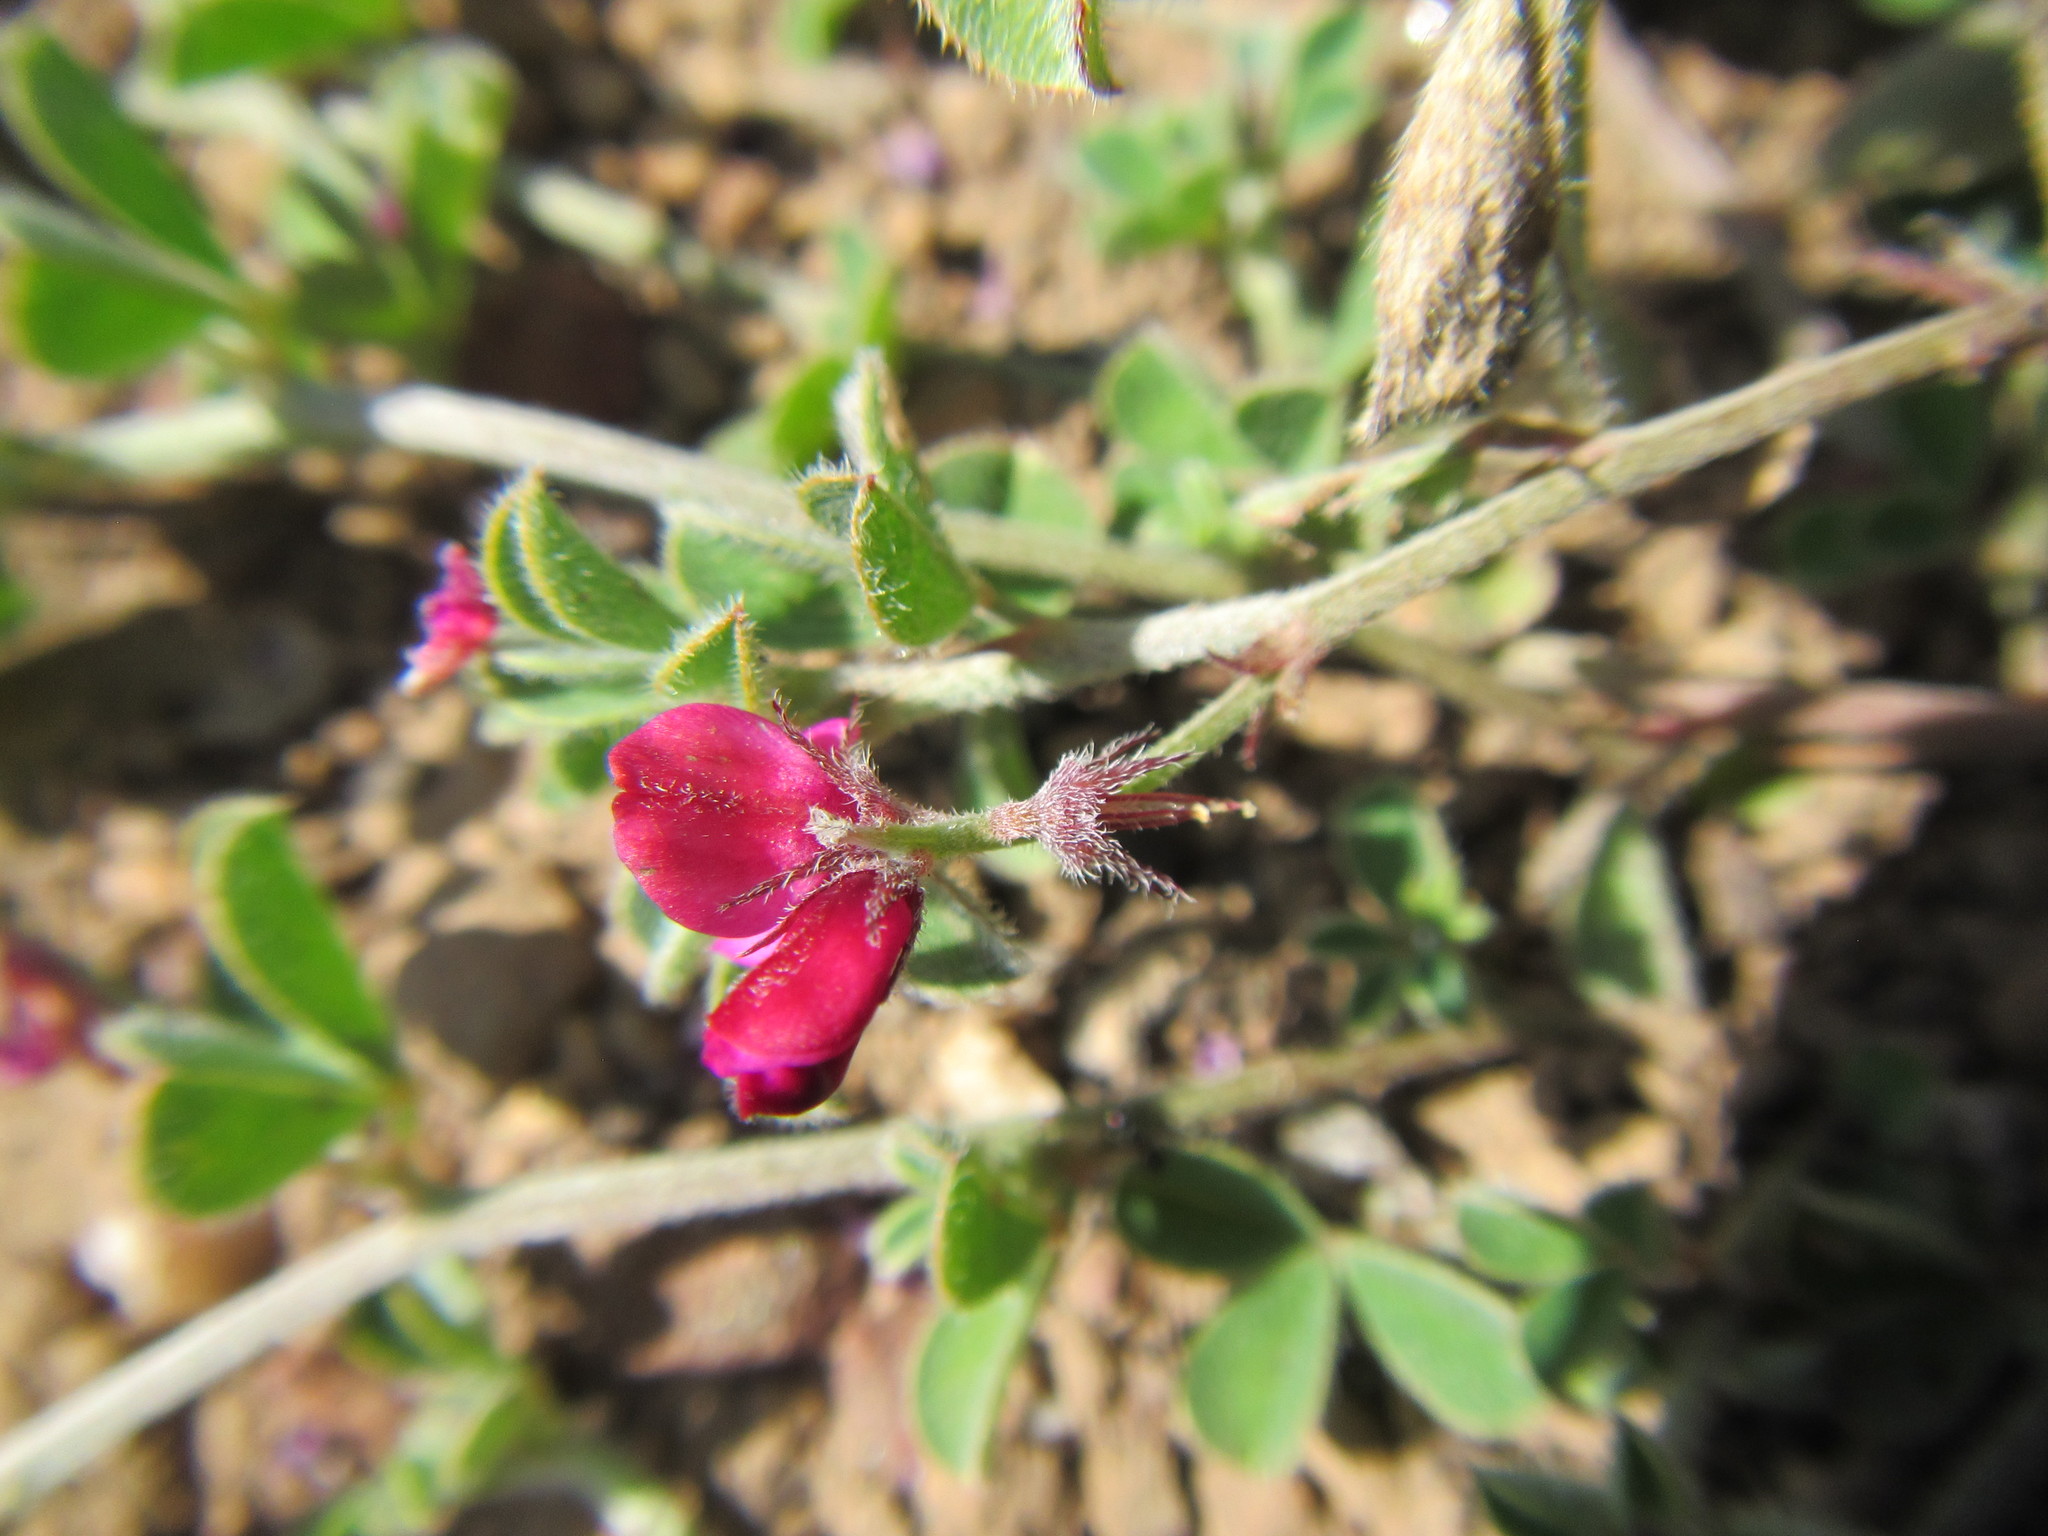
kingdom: Plantae
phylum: Tracheophyta
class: Magnoliopsida
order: Fabales
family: Fabaceae
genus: Indigofera
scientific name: Indigofera incana
